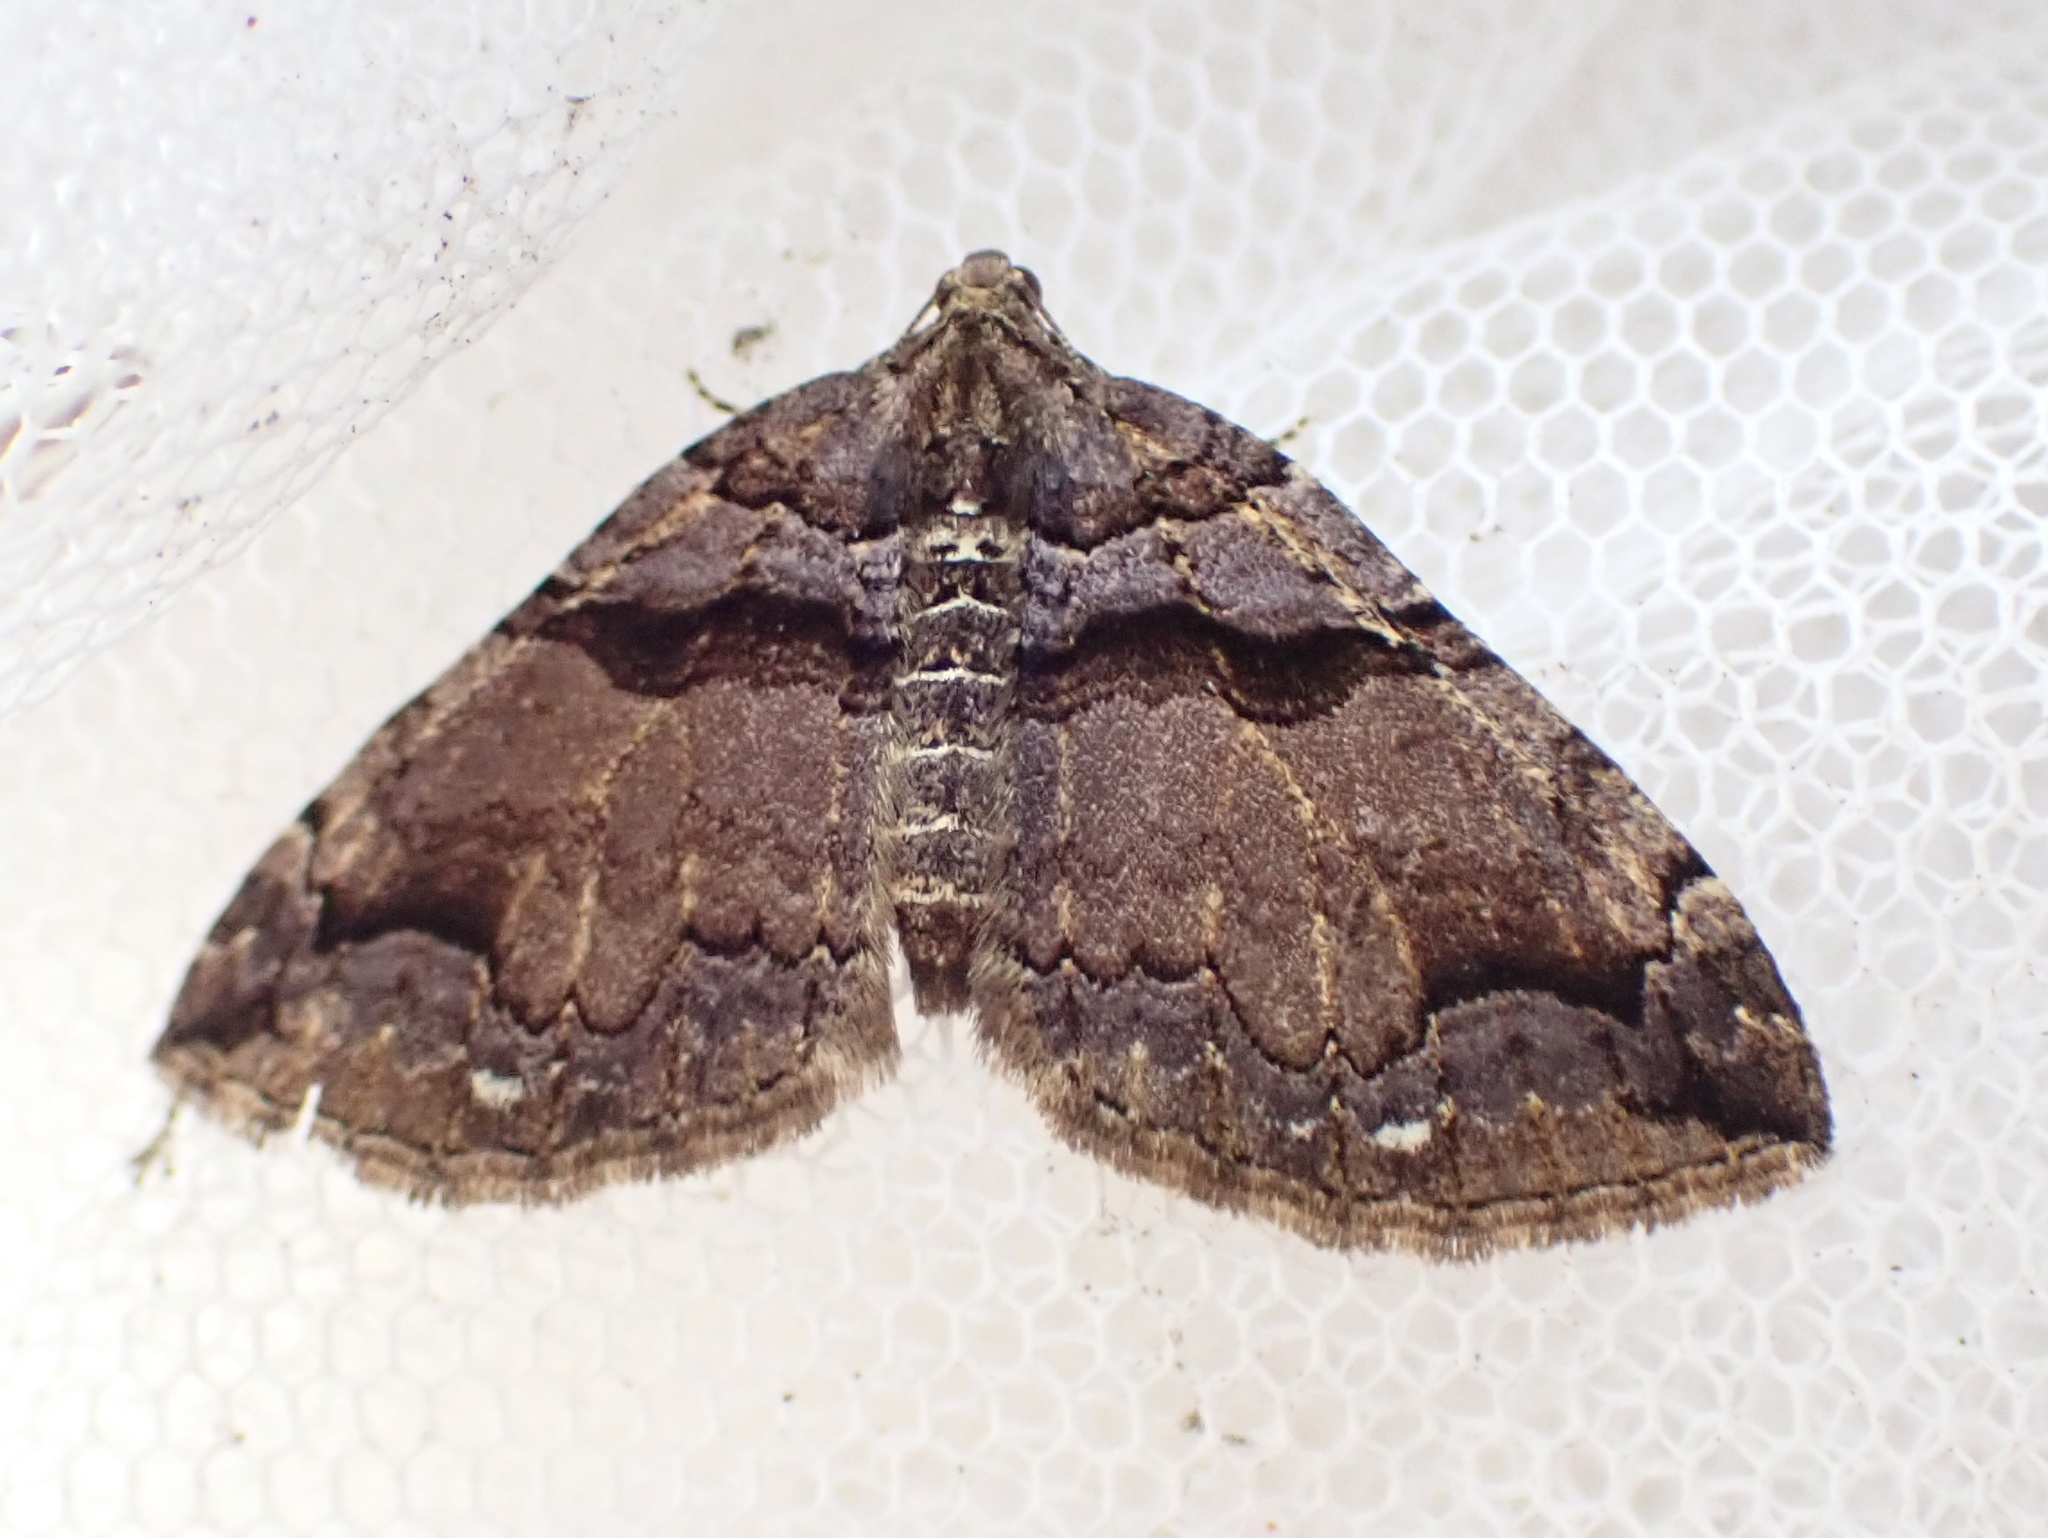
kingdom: Animalia
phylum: Arthropoda
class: Insecta
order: Lepidoptera
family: Geometridae
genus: Anticlea
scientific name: Anticlea vasiliata
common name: Variable carpet
